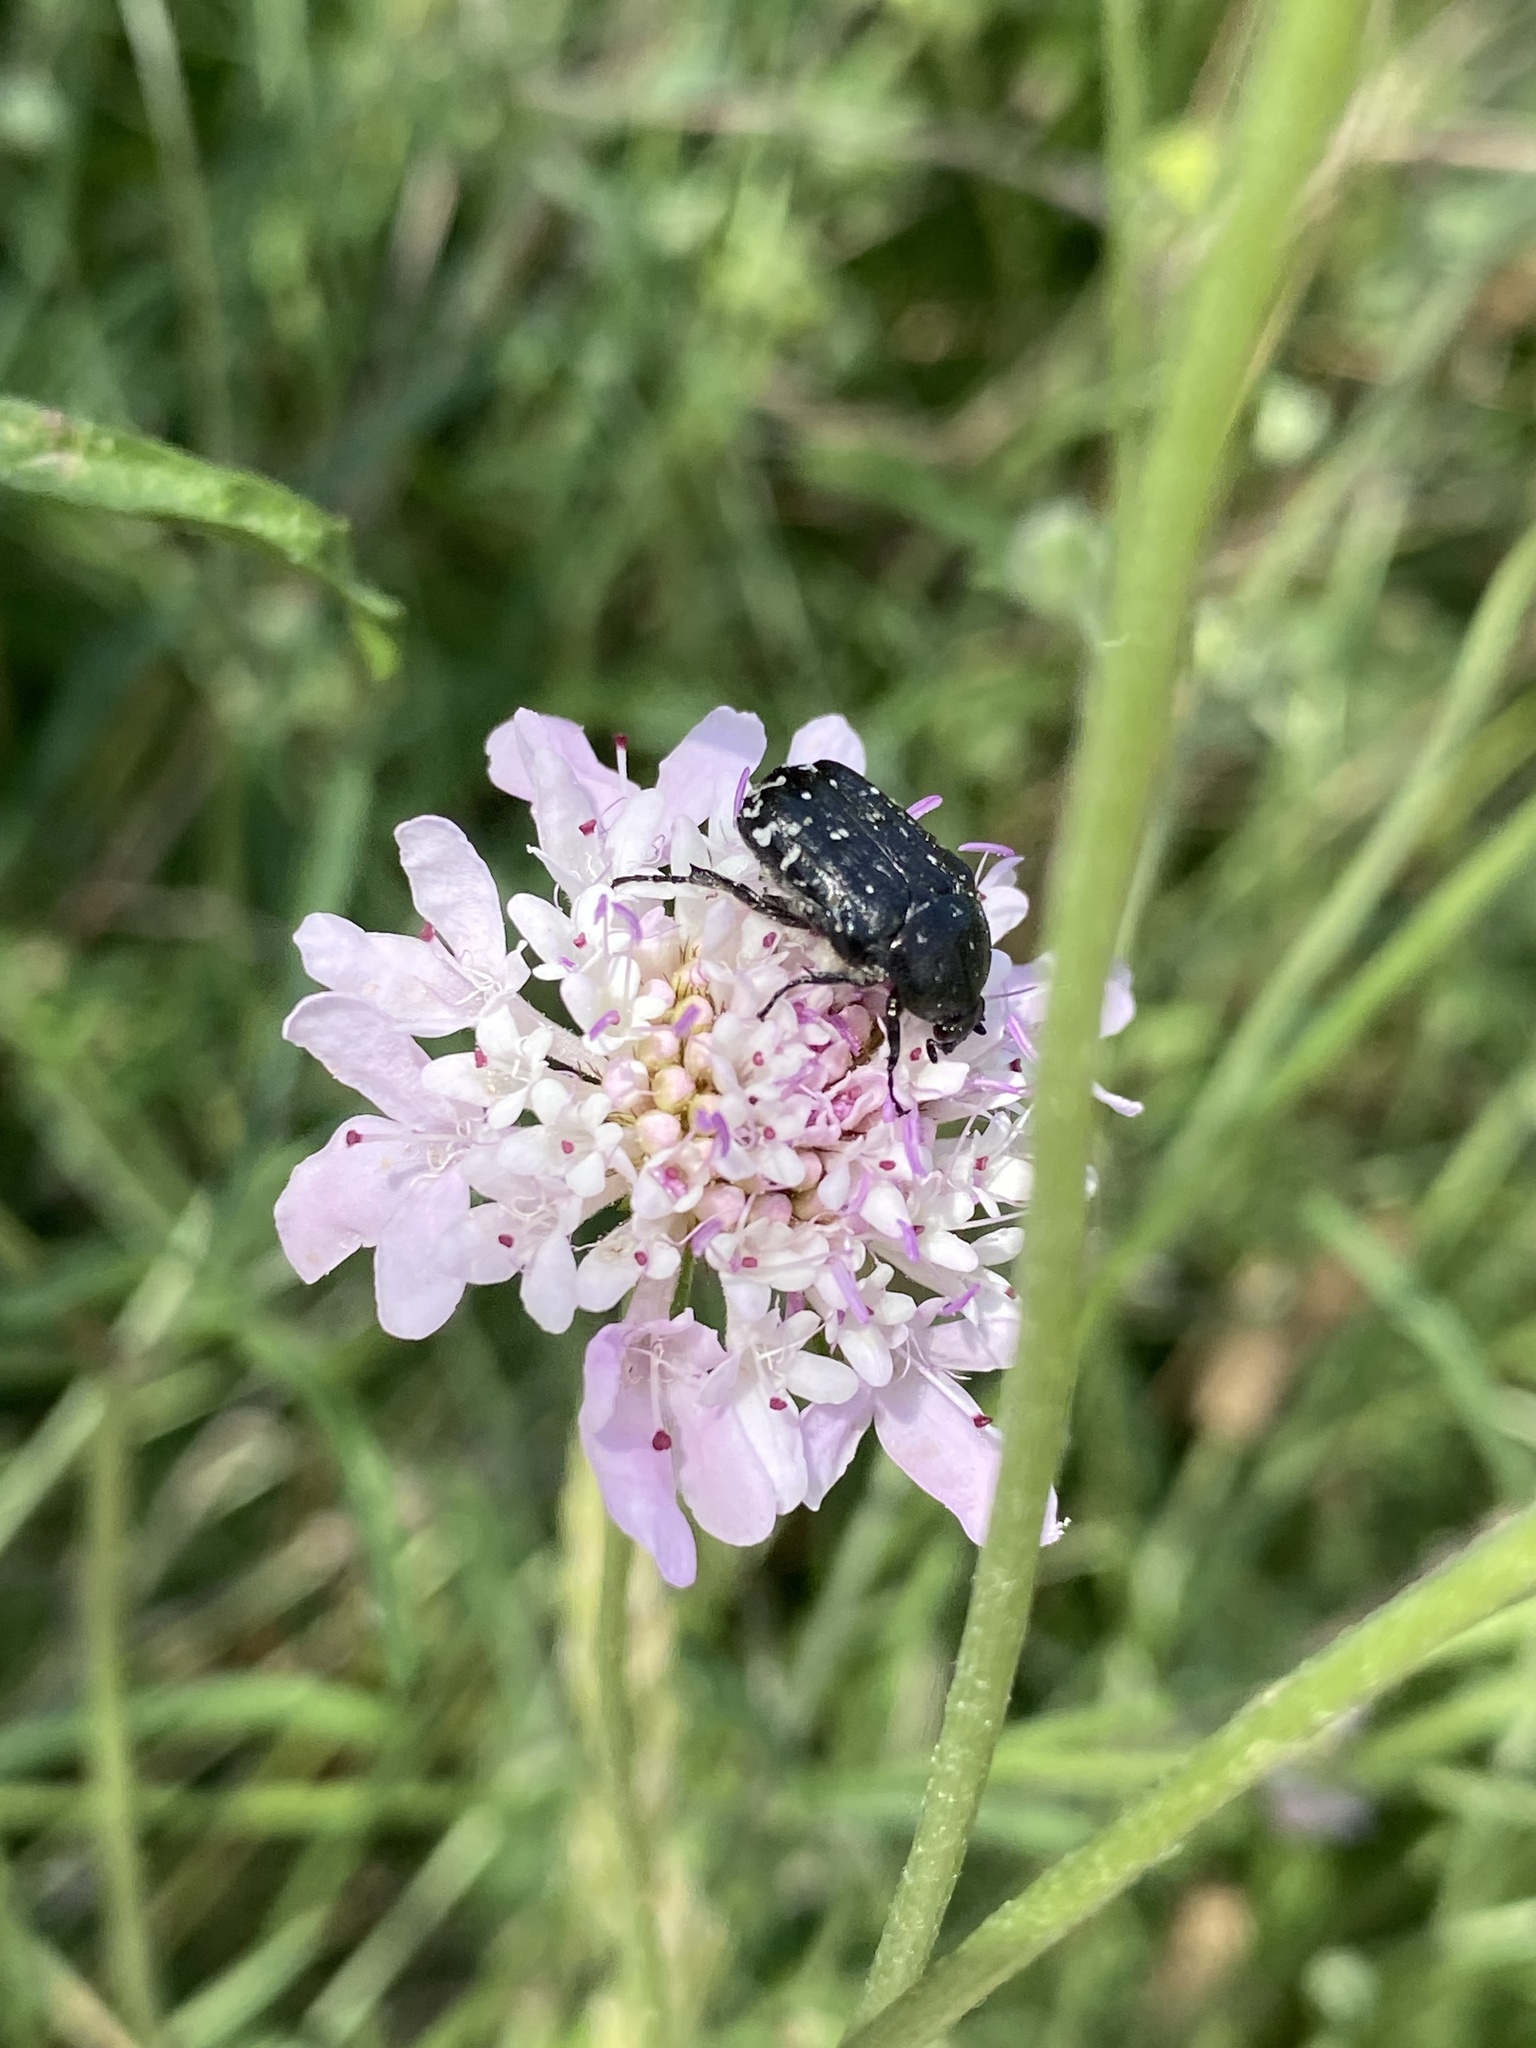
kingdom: Animalia
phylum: Arthropoda
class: Insecta
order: Coleoptera
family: Scarabaeidae
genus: Oxythyrea
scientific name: Oxythyrea funesta
